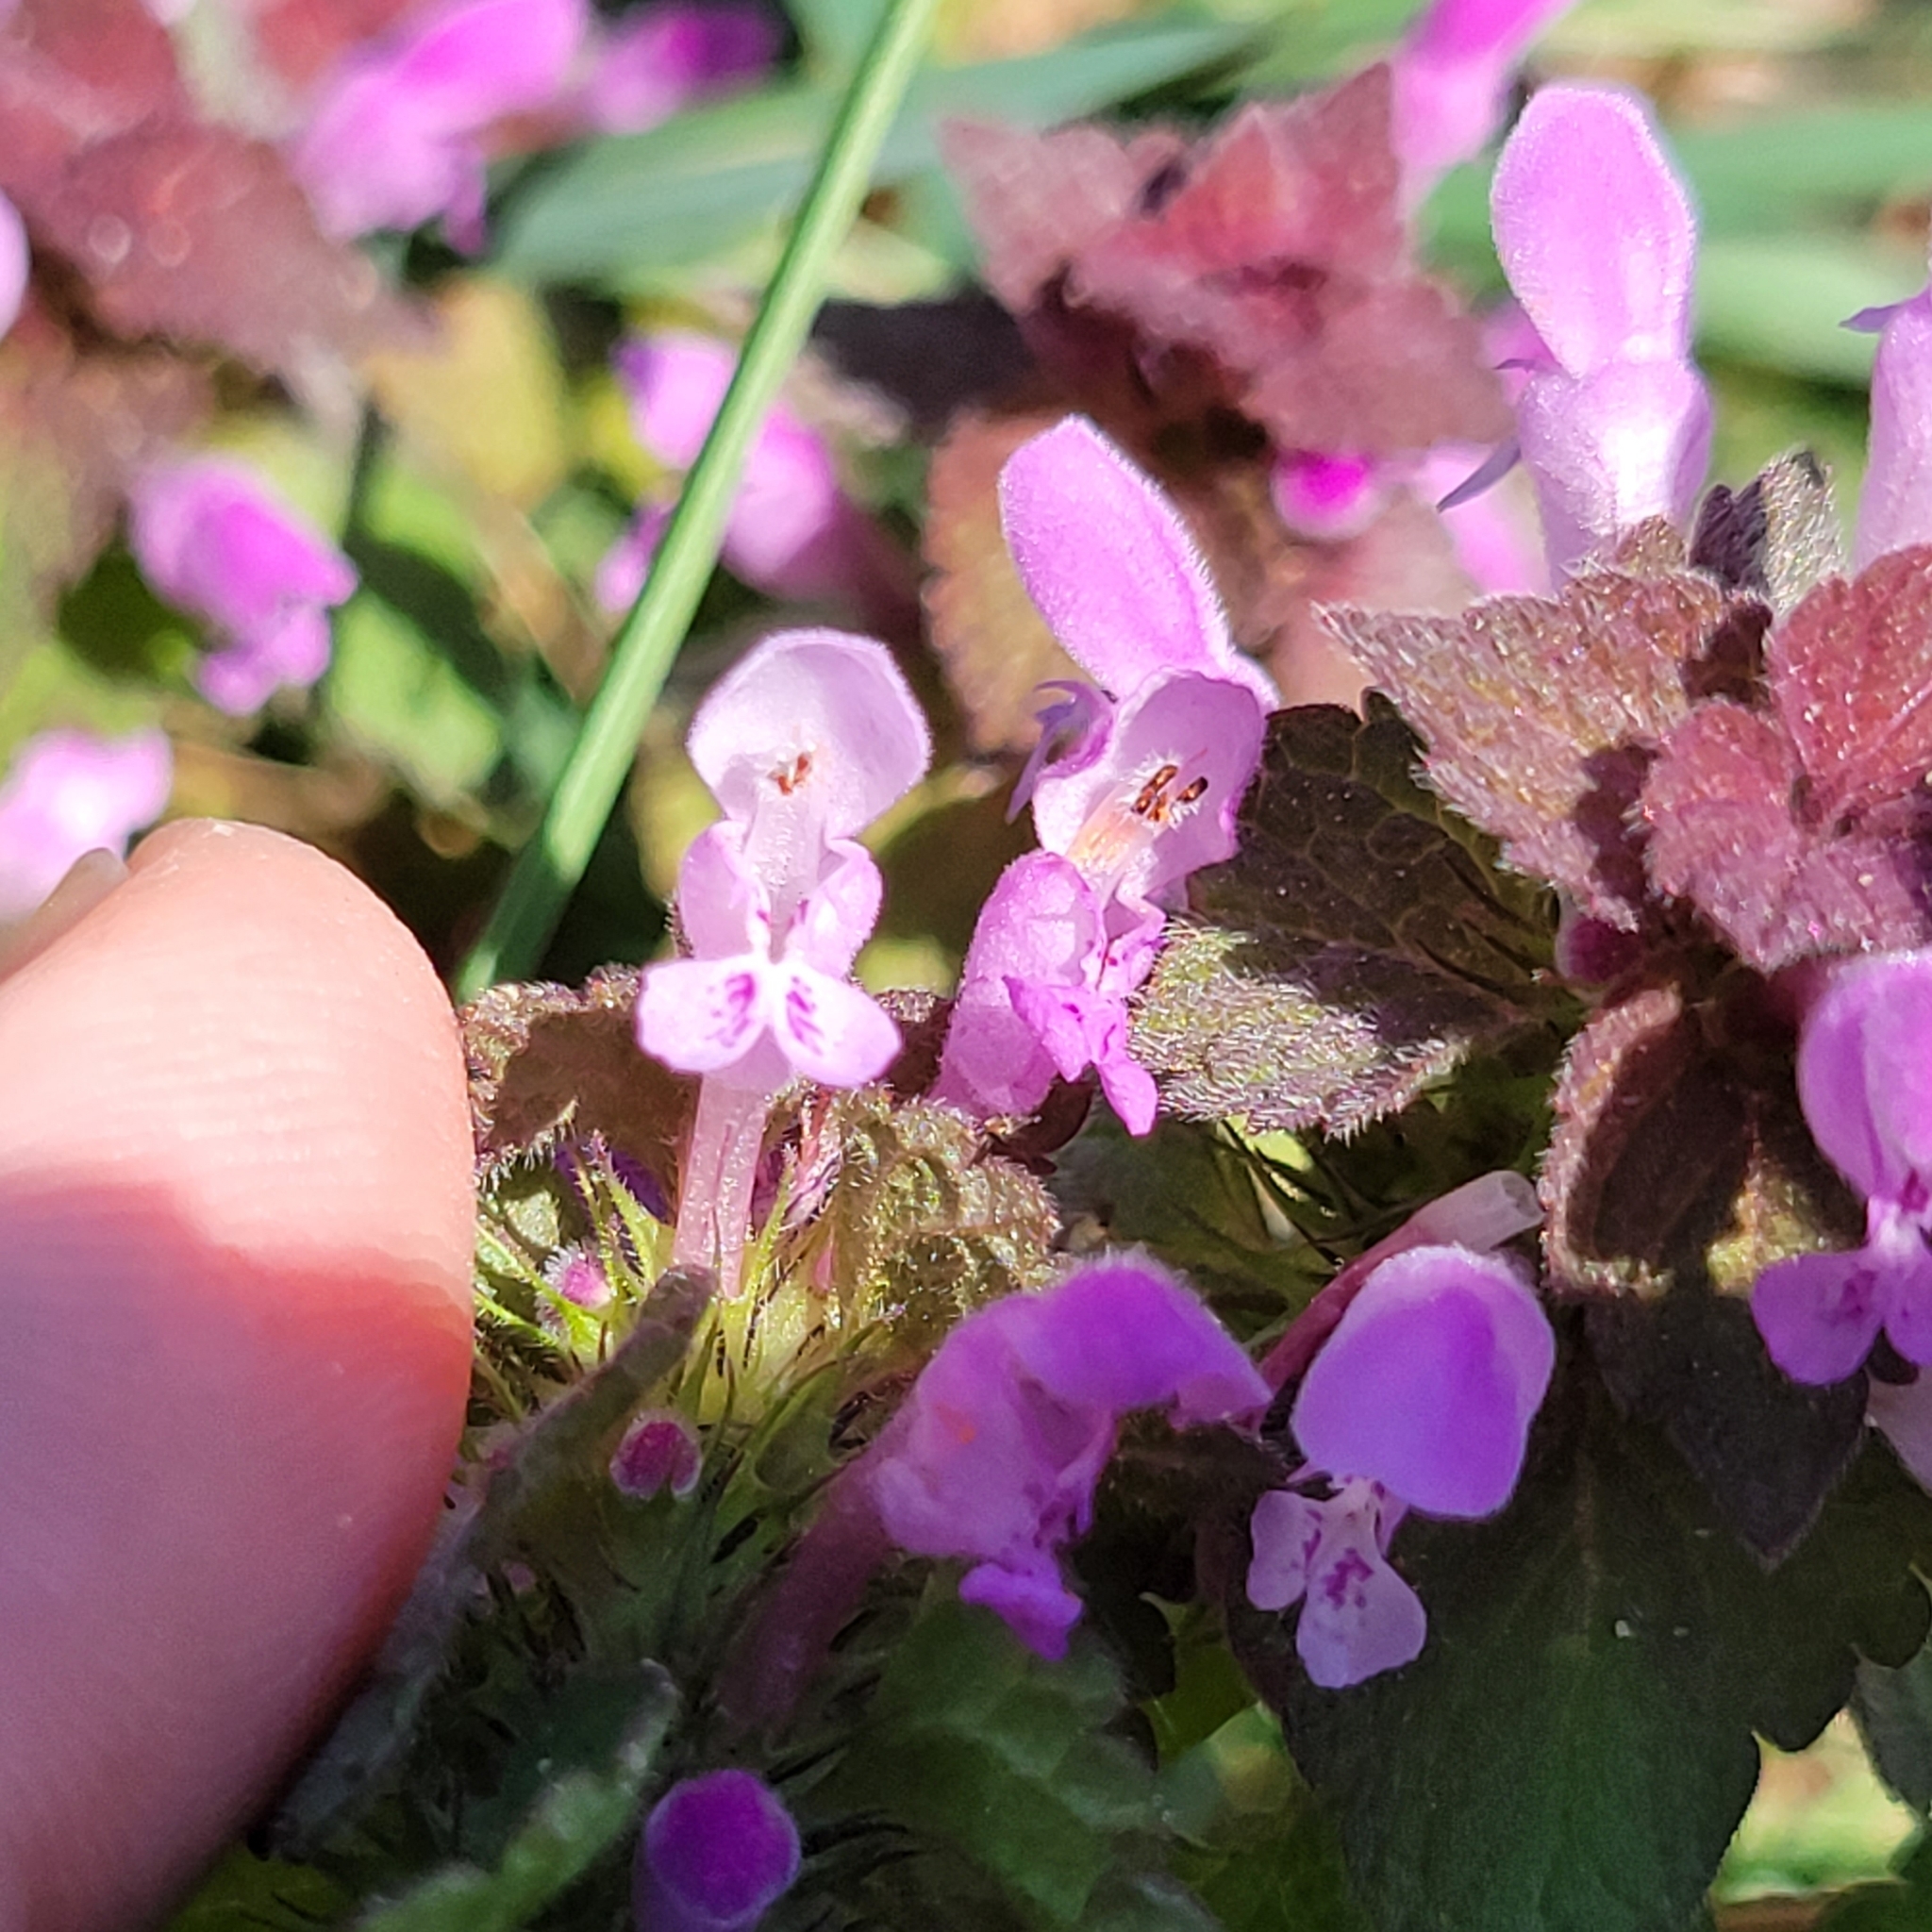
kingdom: Plantae
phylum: Tracheophyta
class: Magnoliopsida
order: Lamiales
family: Lamiaceae
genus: Lamium
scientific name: Lamium purpureum
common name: Red dead-nettle
